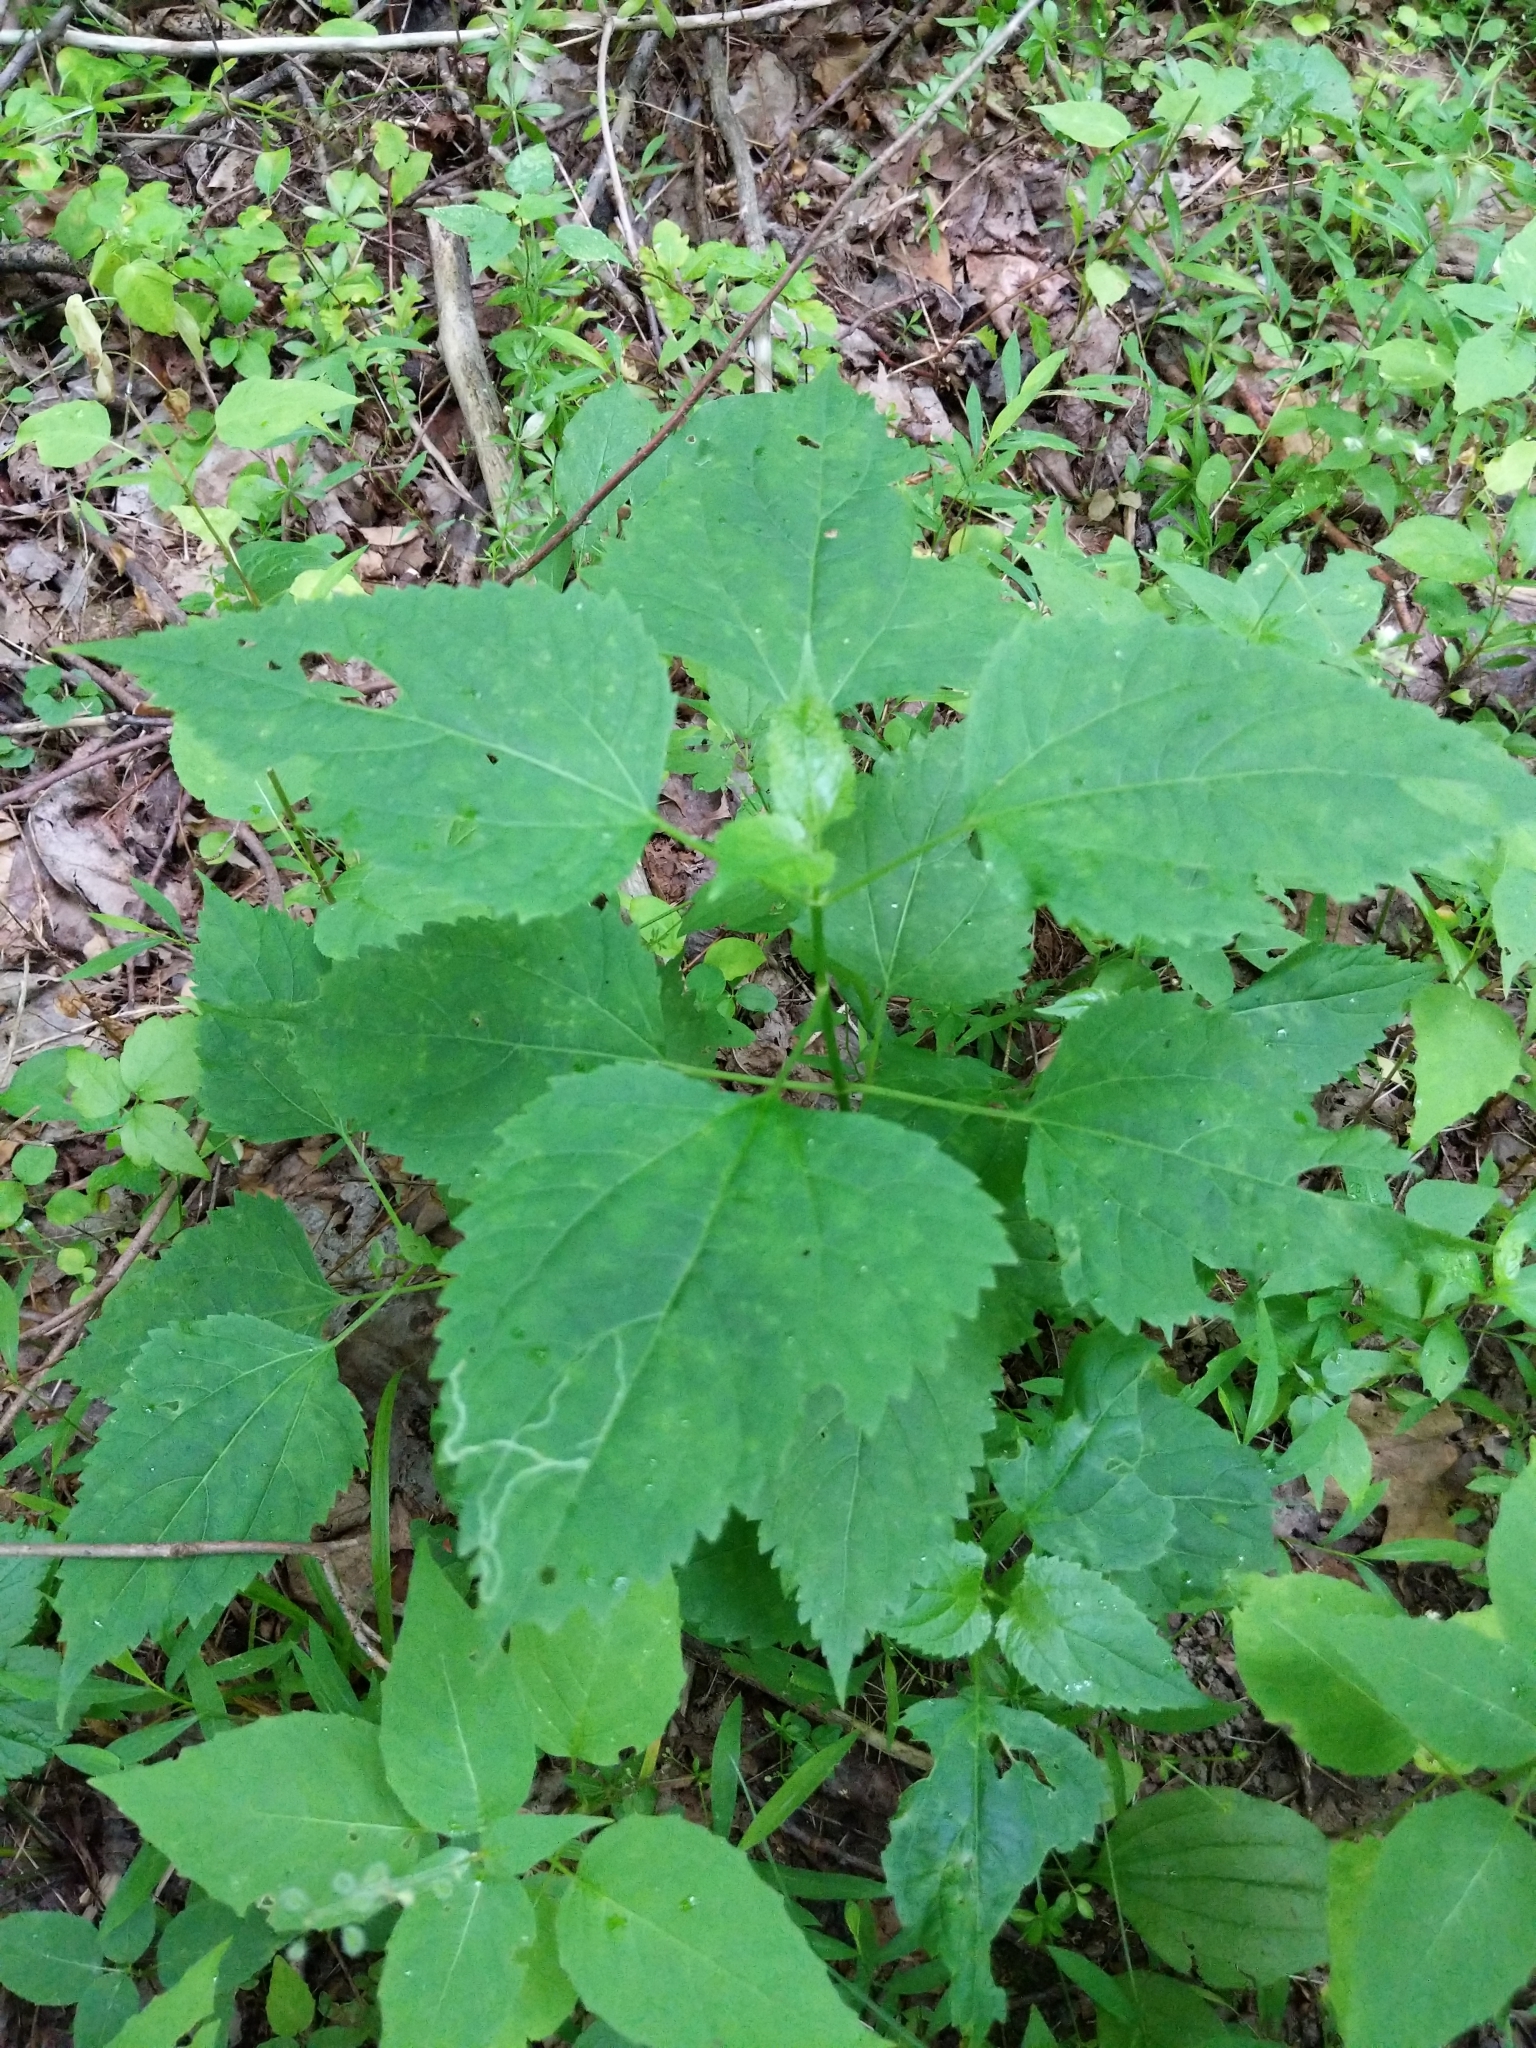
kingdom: Plantae
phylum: Tracheophyta
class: Magnoliopsida
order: Asterales
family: Asteraceae
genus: Ageratina
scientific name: Ageratina altissima
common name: White snakeroot
